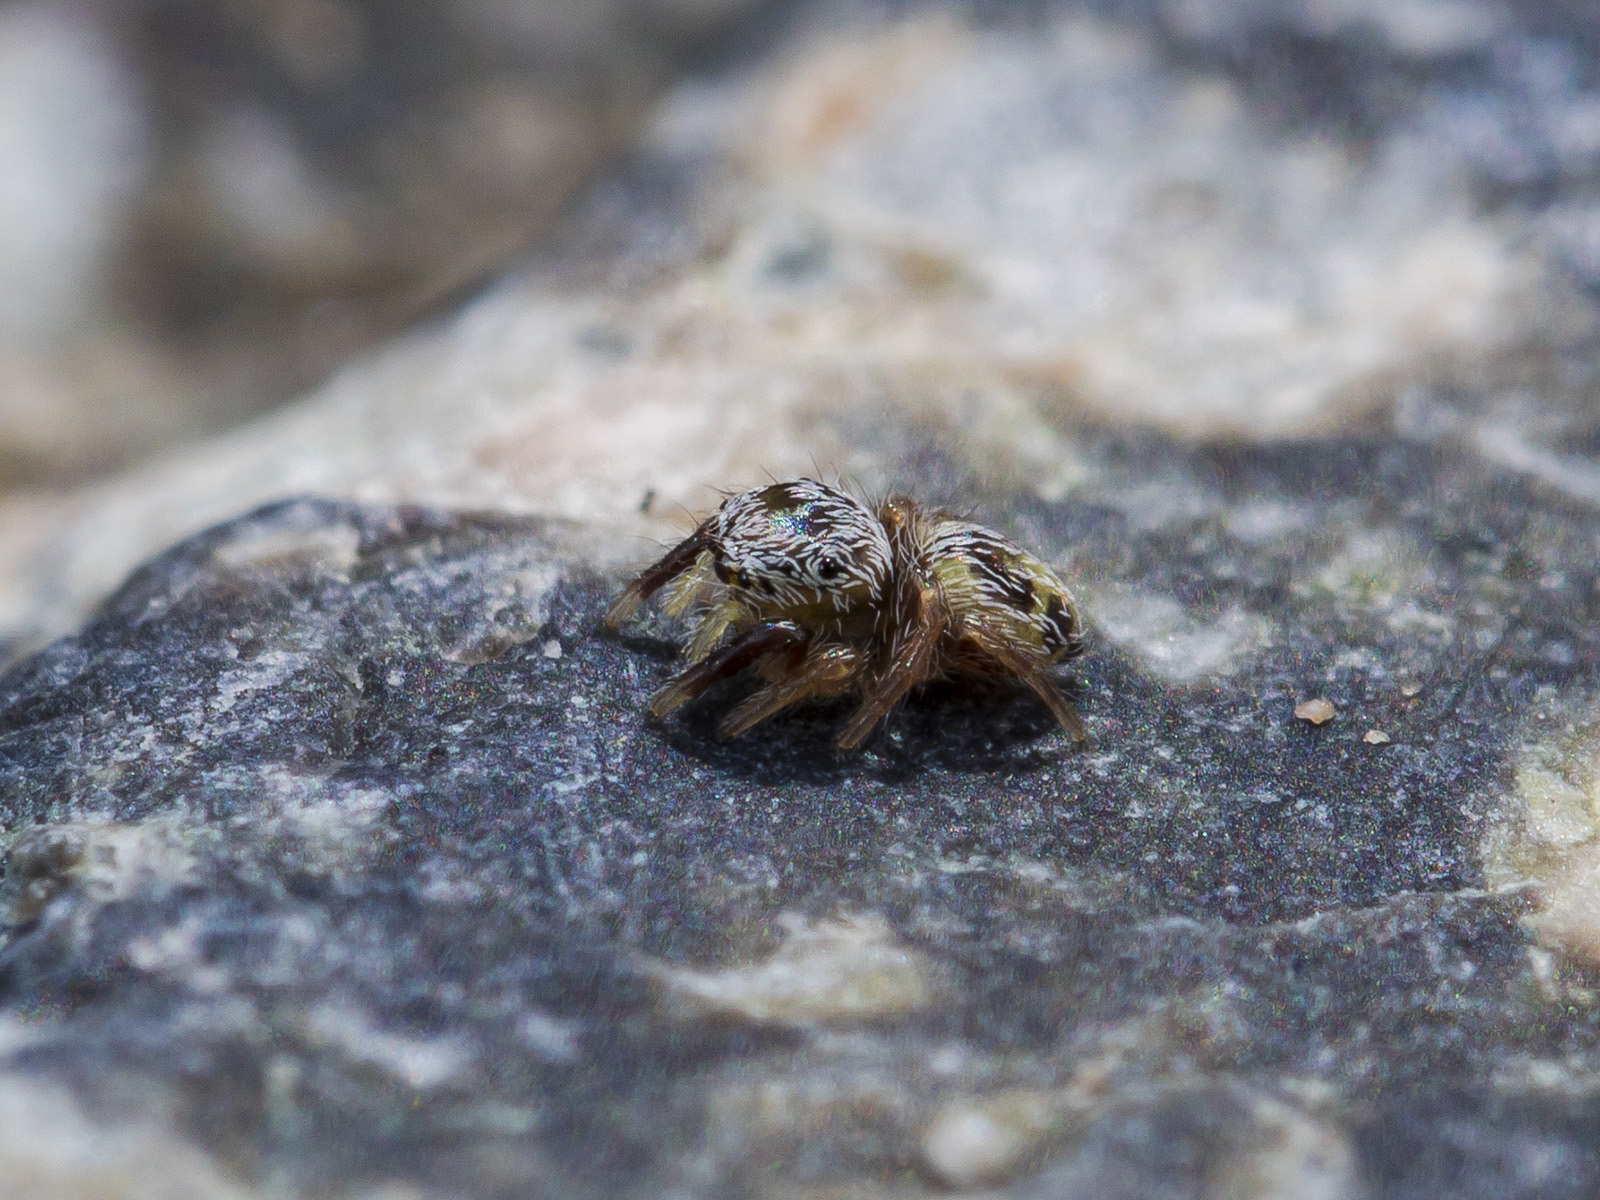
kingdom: Animalia
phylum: Arthropoda
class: Arachnida
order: Araneae
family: Salticidae
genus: Pellenes
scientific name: Pellenes geniculatus
